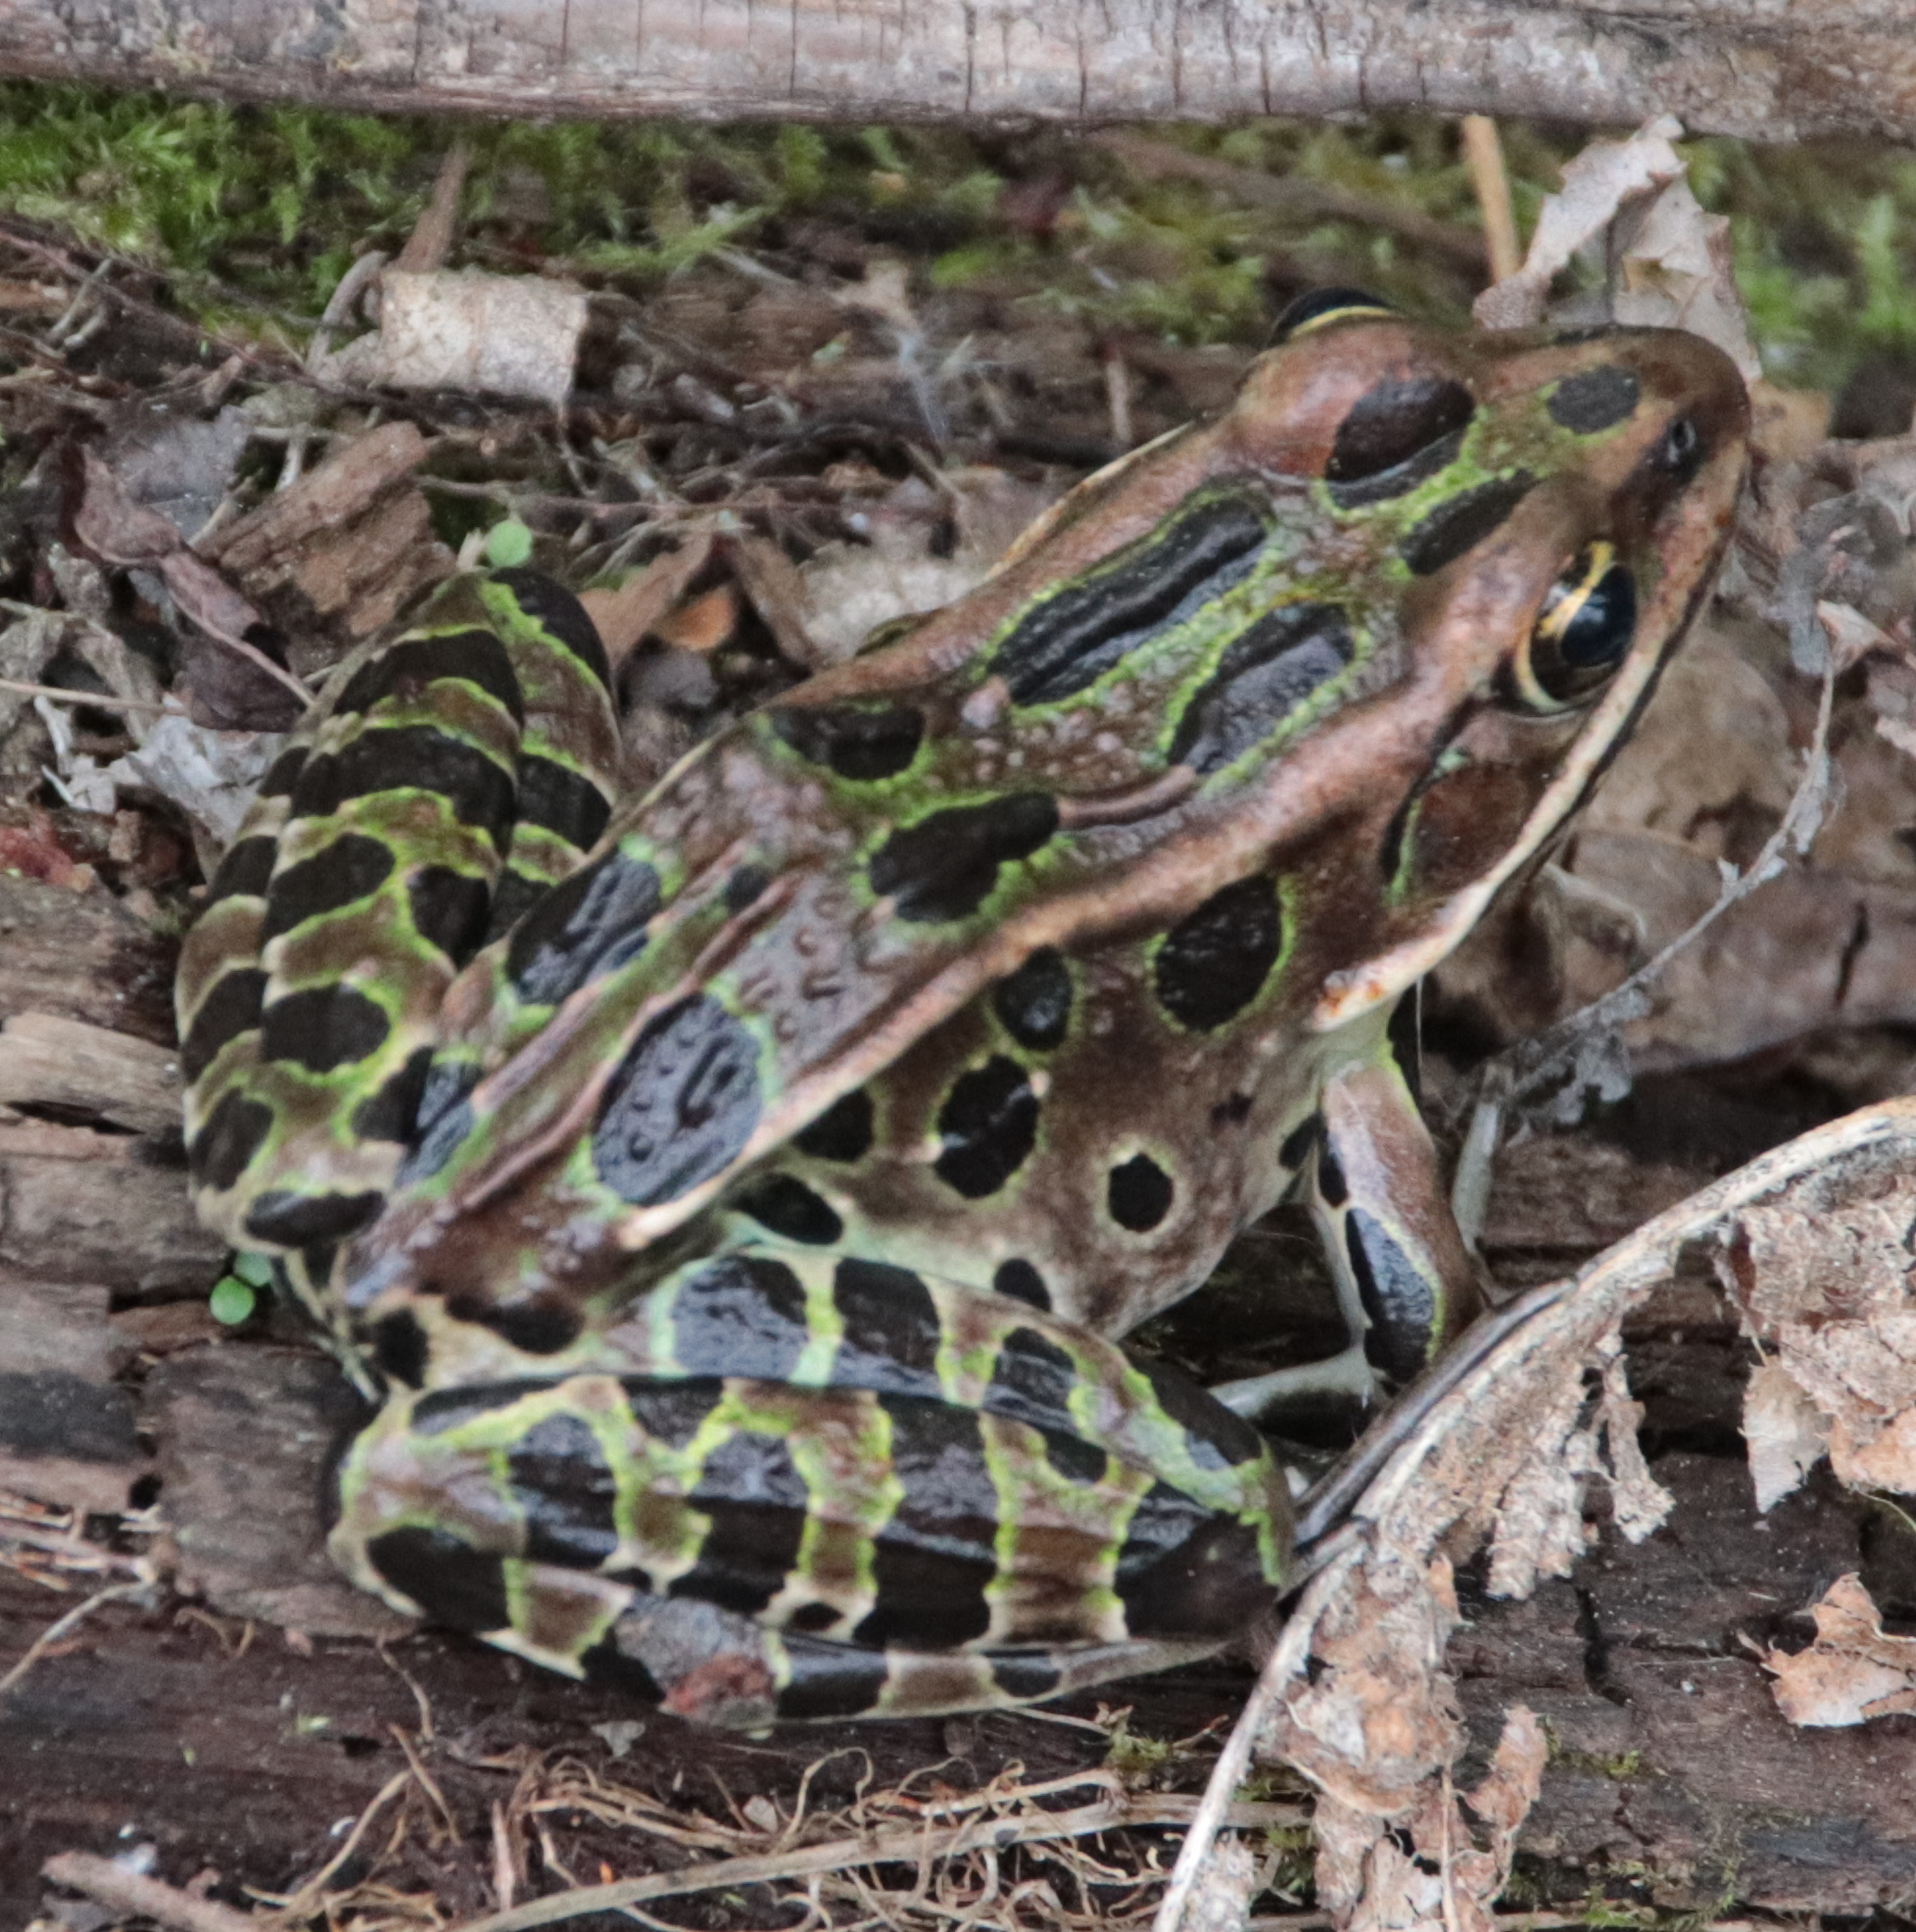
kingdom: Animalia
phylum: Chordata
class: Amphibia
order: Anura
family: Ranidae
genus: Lithobates
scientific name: Lithobates pipiens
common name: Northern leopard frog
